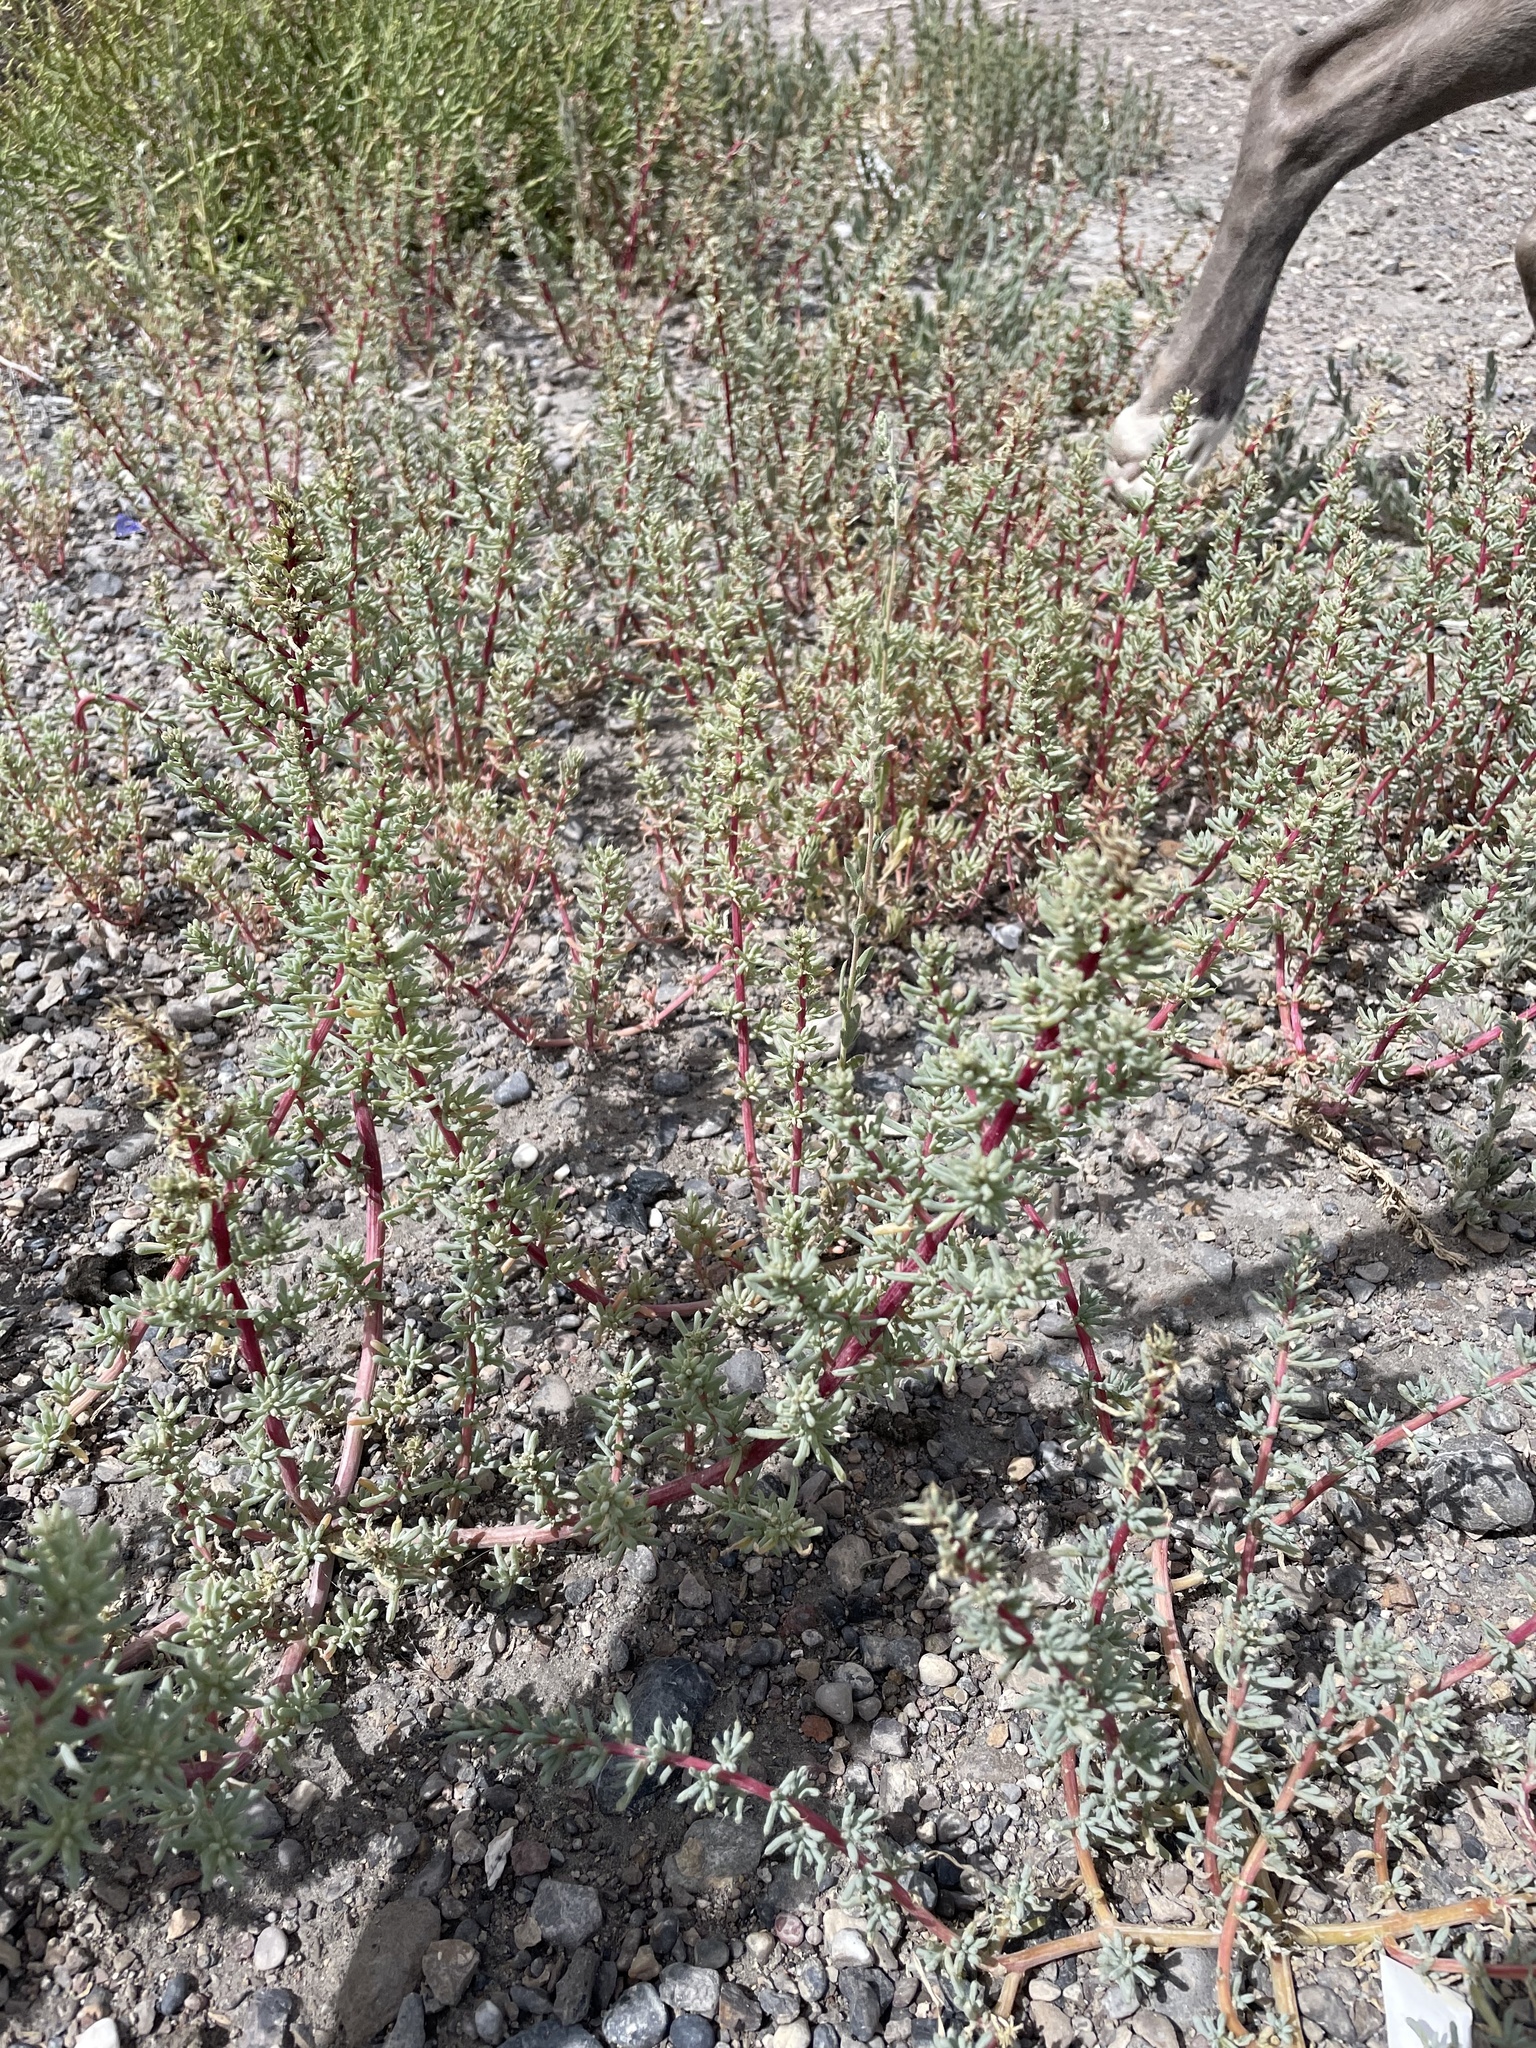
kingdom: Plantae
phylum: Tracheophyta
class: Magnoliopsida
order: Caryophyllales
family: Amaranthaceae
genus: Halogeton
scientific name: Halogeton glomeratus
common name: Saltlover
